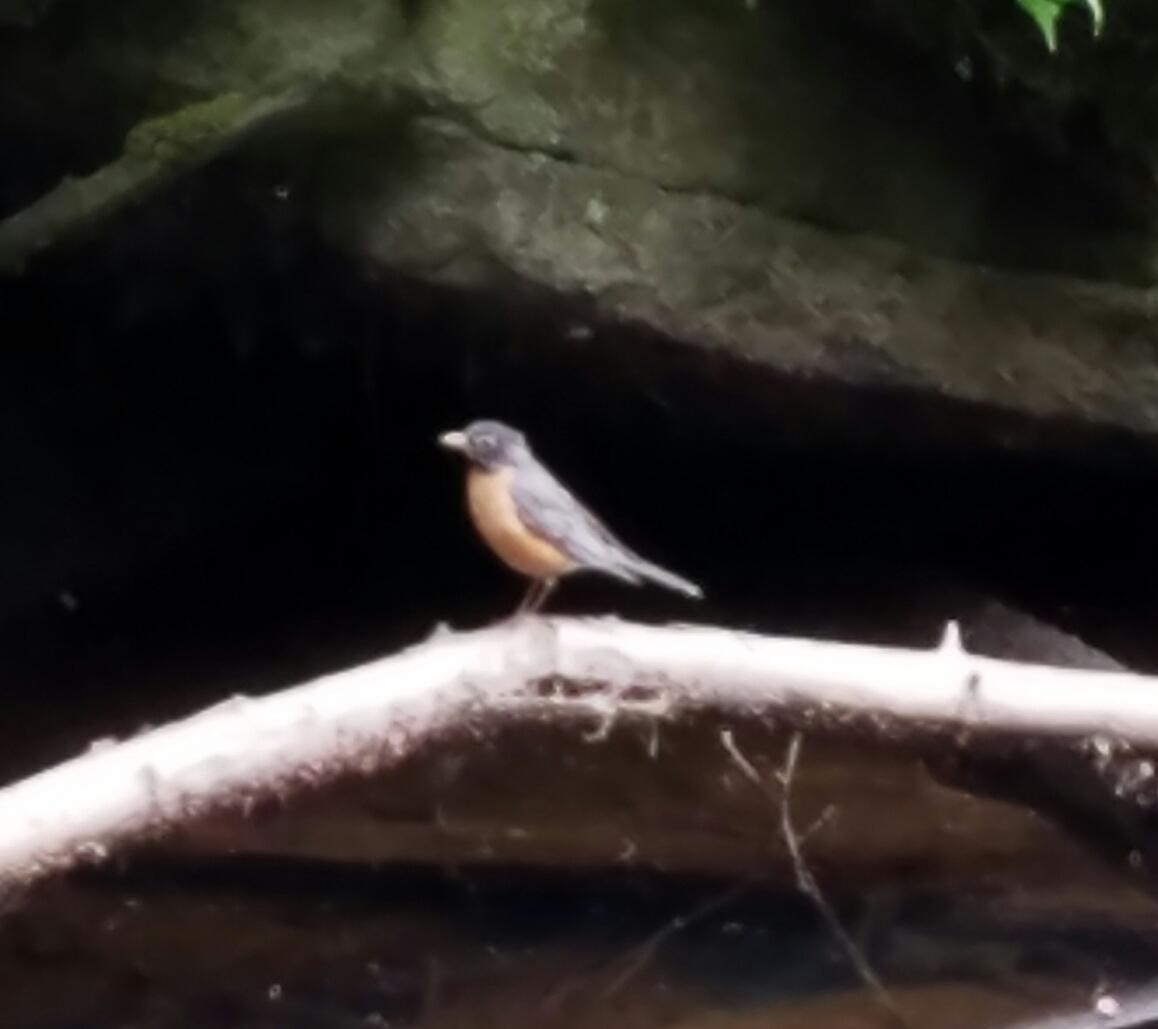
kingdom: Animalia
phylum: Chordata
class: Aves
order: Passeriformes
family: Turdidae
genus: Turdus
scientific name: Turdus migratorius
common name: American robin
